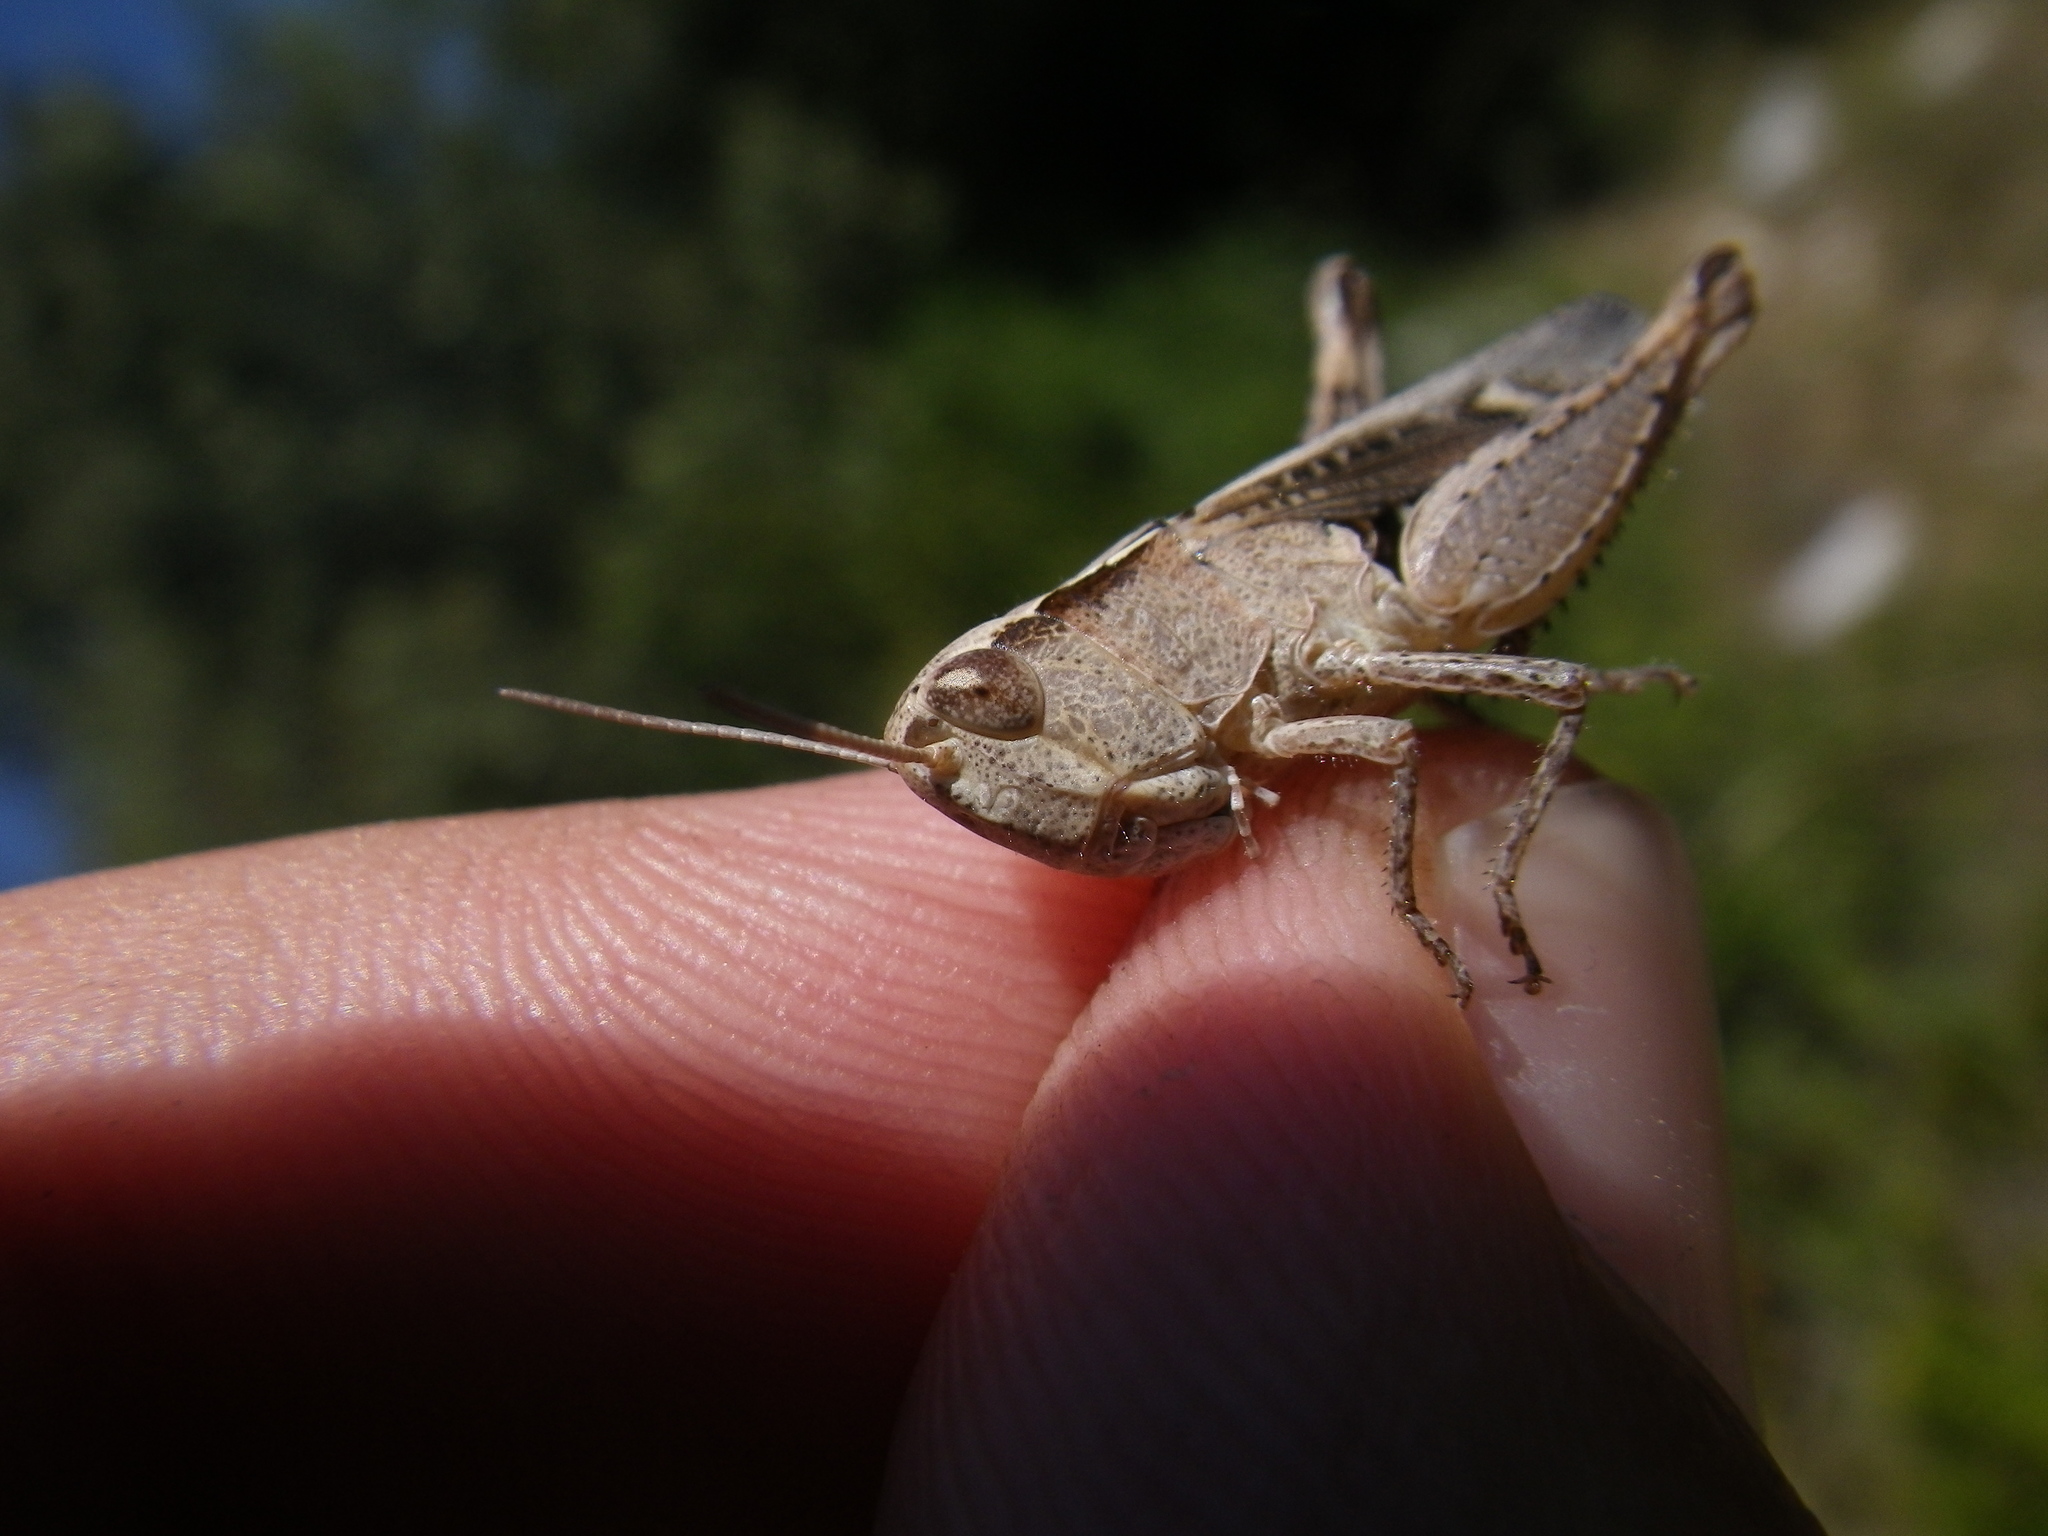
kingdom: Animalia
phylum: Arthropoda
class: Insecta
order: Orthoptera
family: Acrididae
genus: Chorthippus
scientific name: Chorthippus vagans
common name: Heath grasshopper
